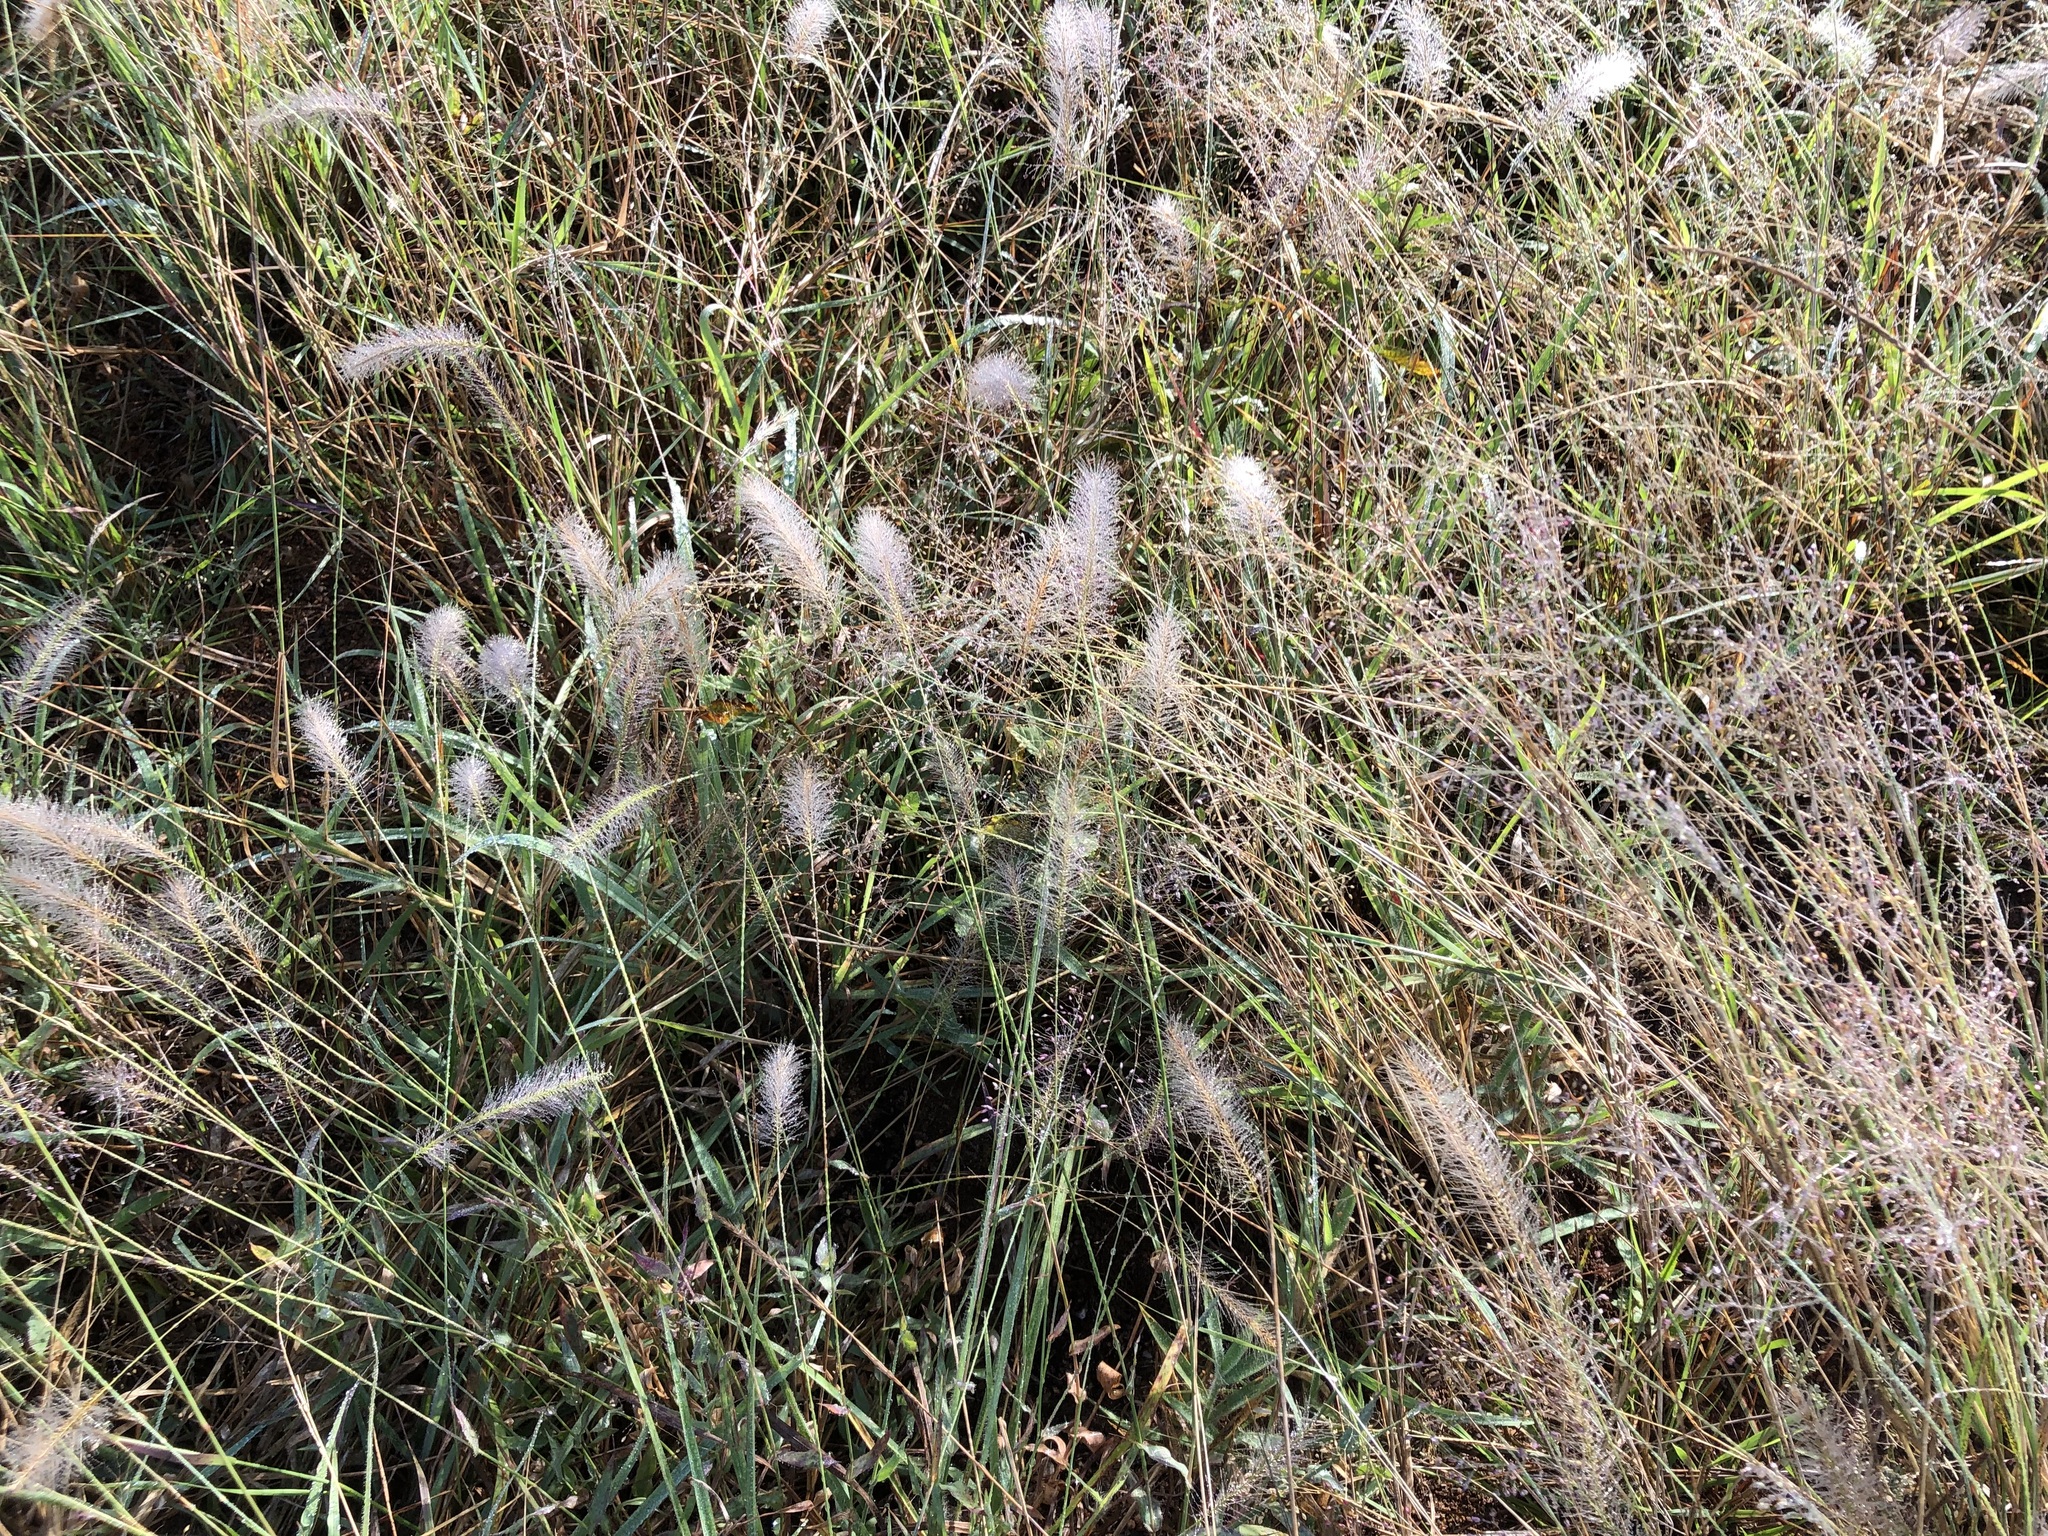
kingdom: Plantae
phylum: Tracheophyta
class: Liliopsida
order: Poales
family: Poaceae
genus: Perotis
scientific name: Perotis patens
